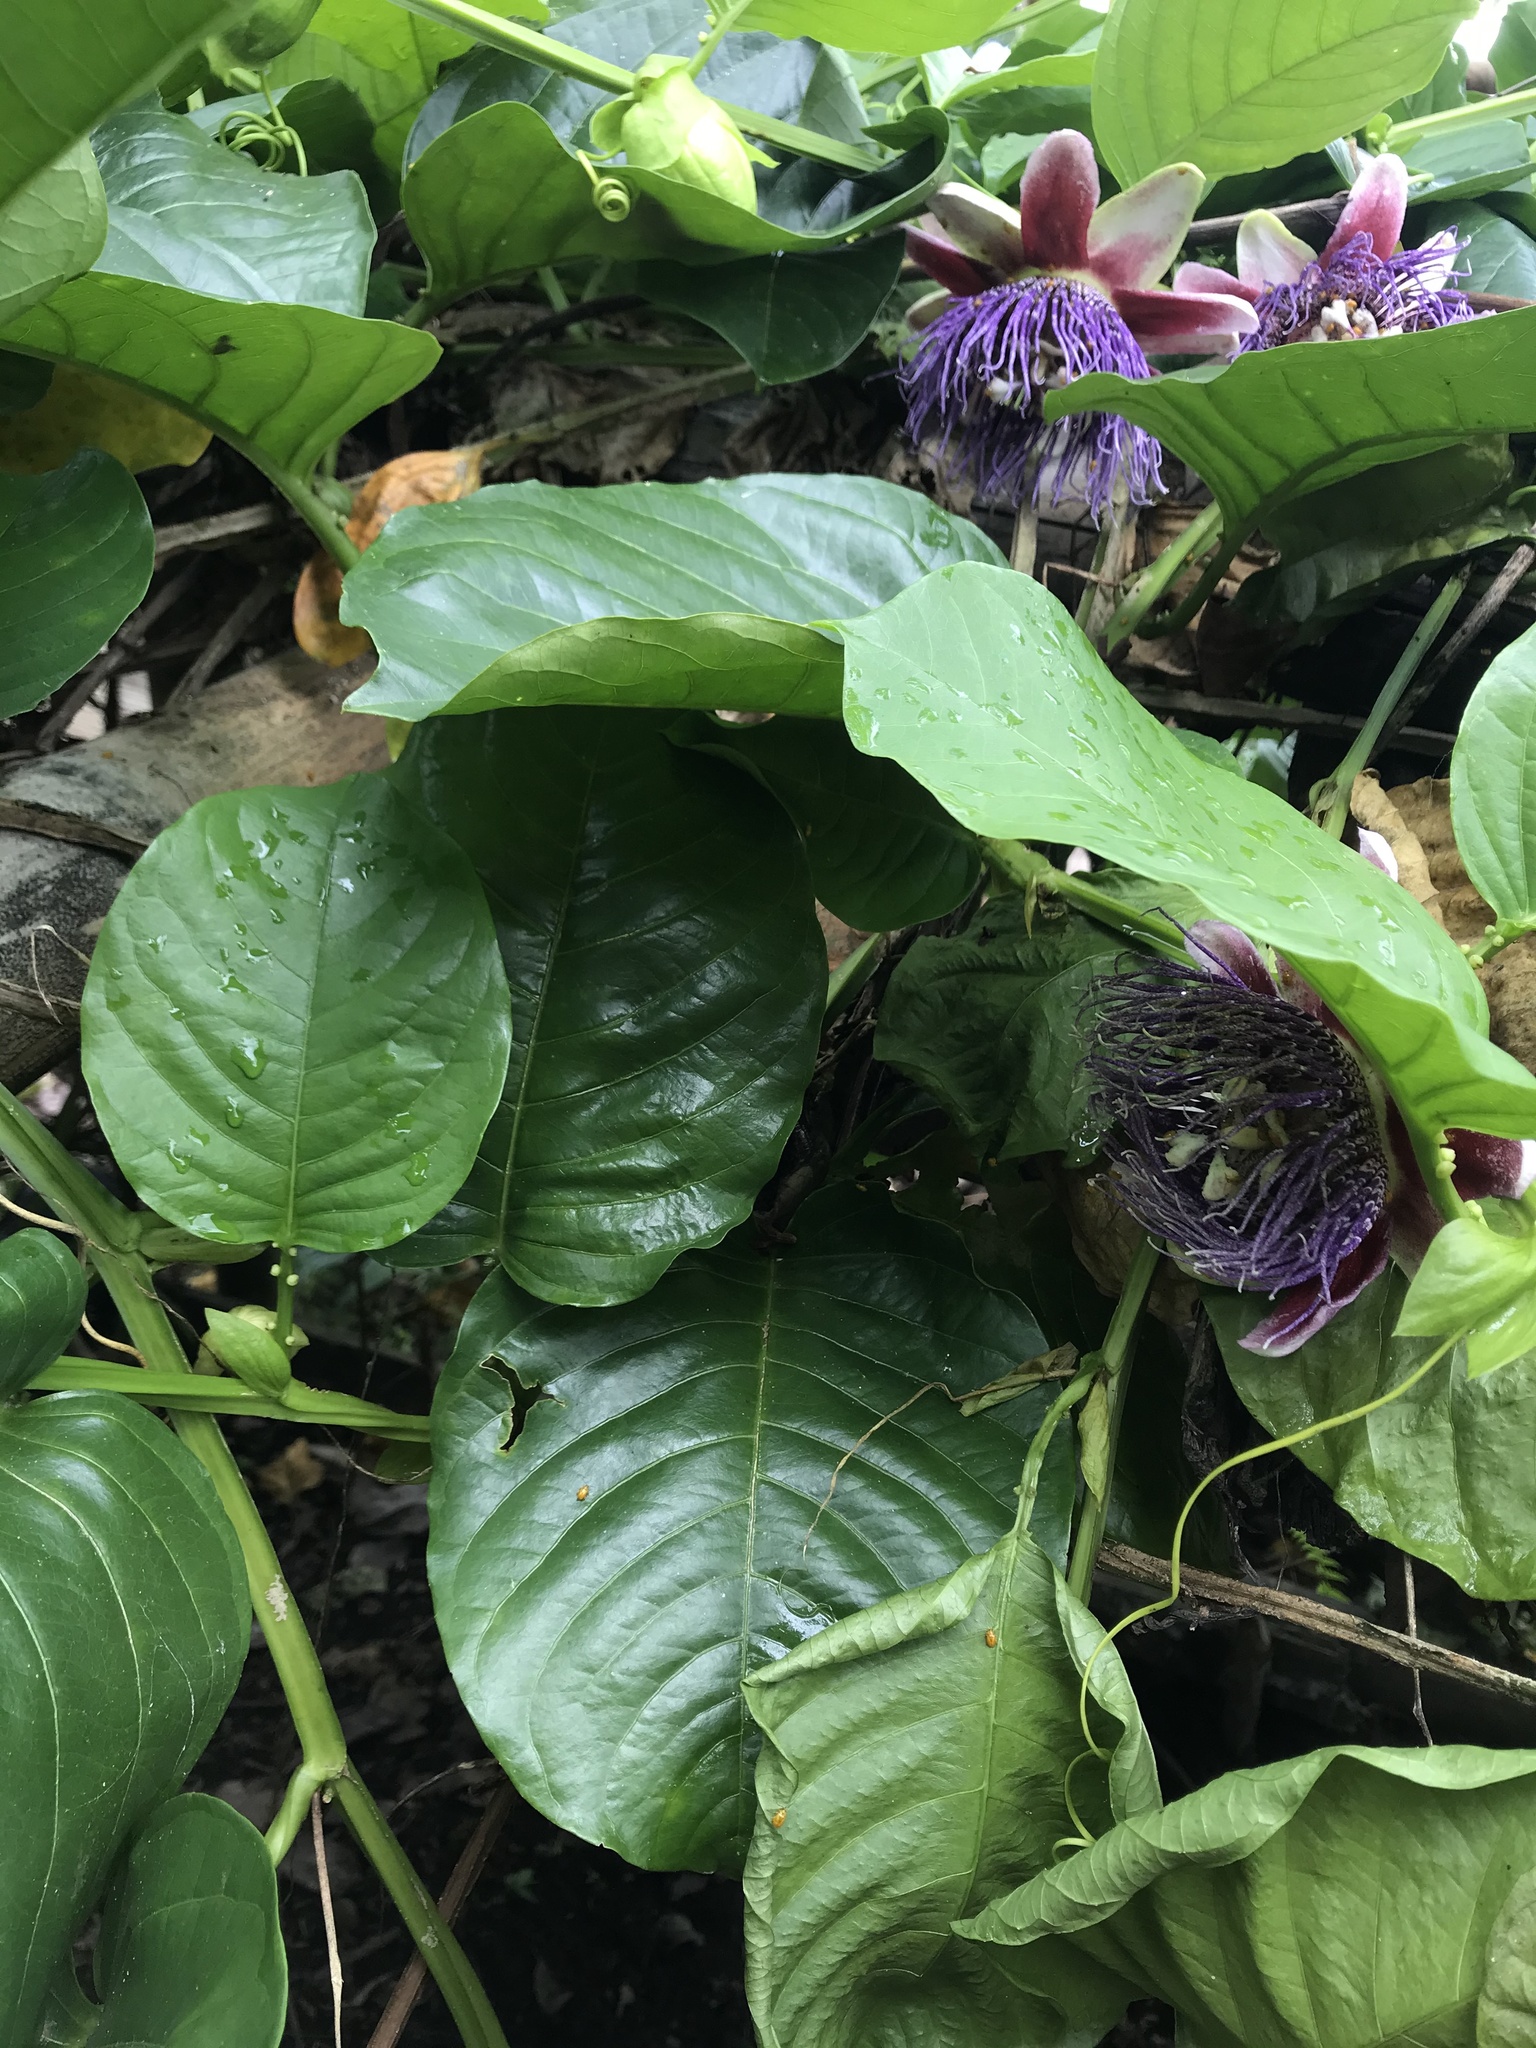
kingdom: Plantae
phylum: Tracheophyta
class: Magnoliopsida
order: Malpighiales
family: Passifloraceae
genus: Passiflora
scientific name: Passiflora quadrangularis
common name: Giant granadilla
